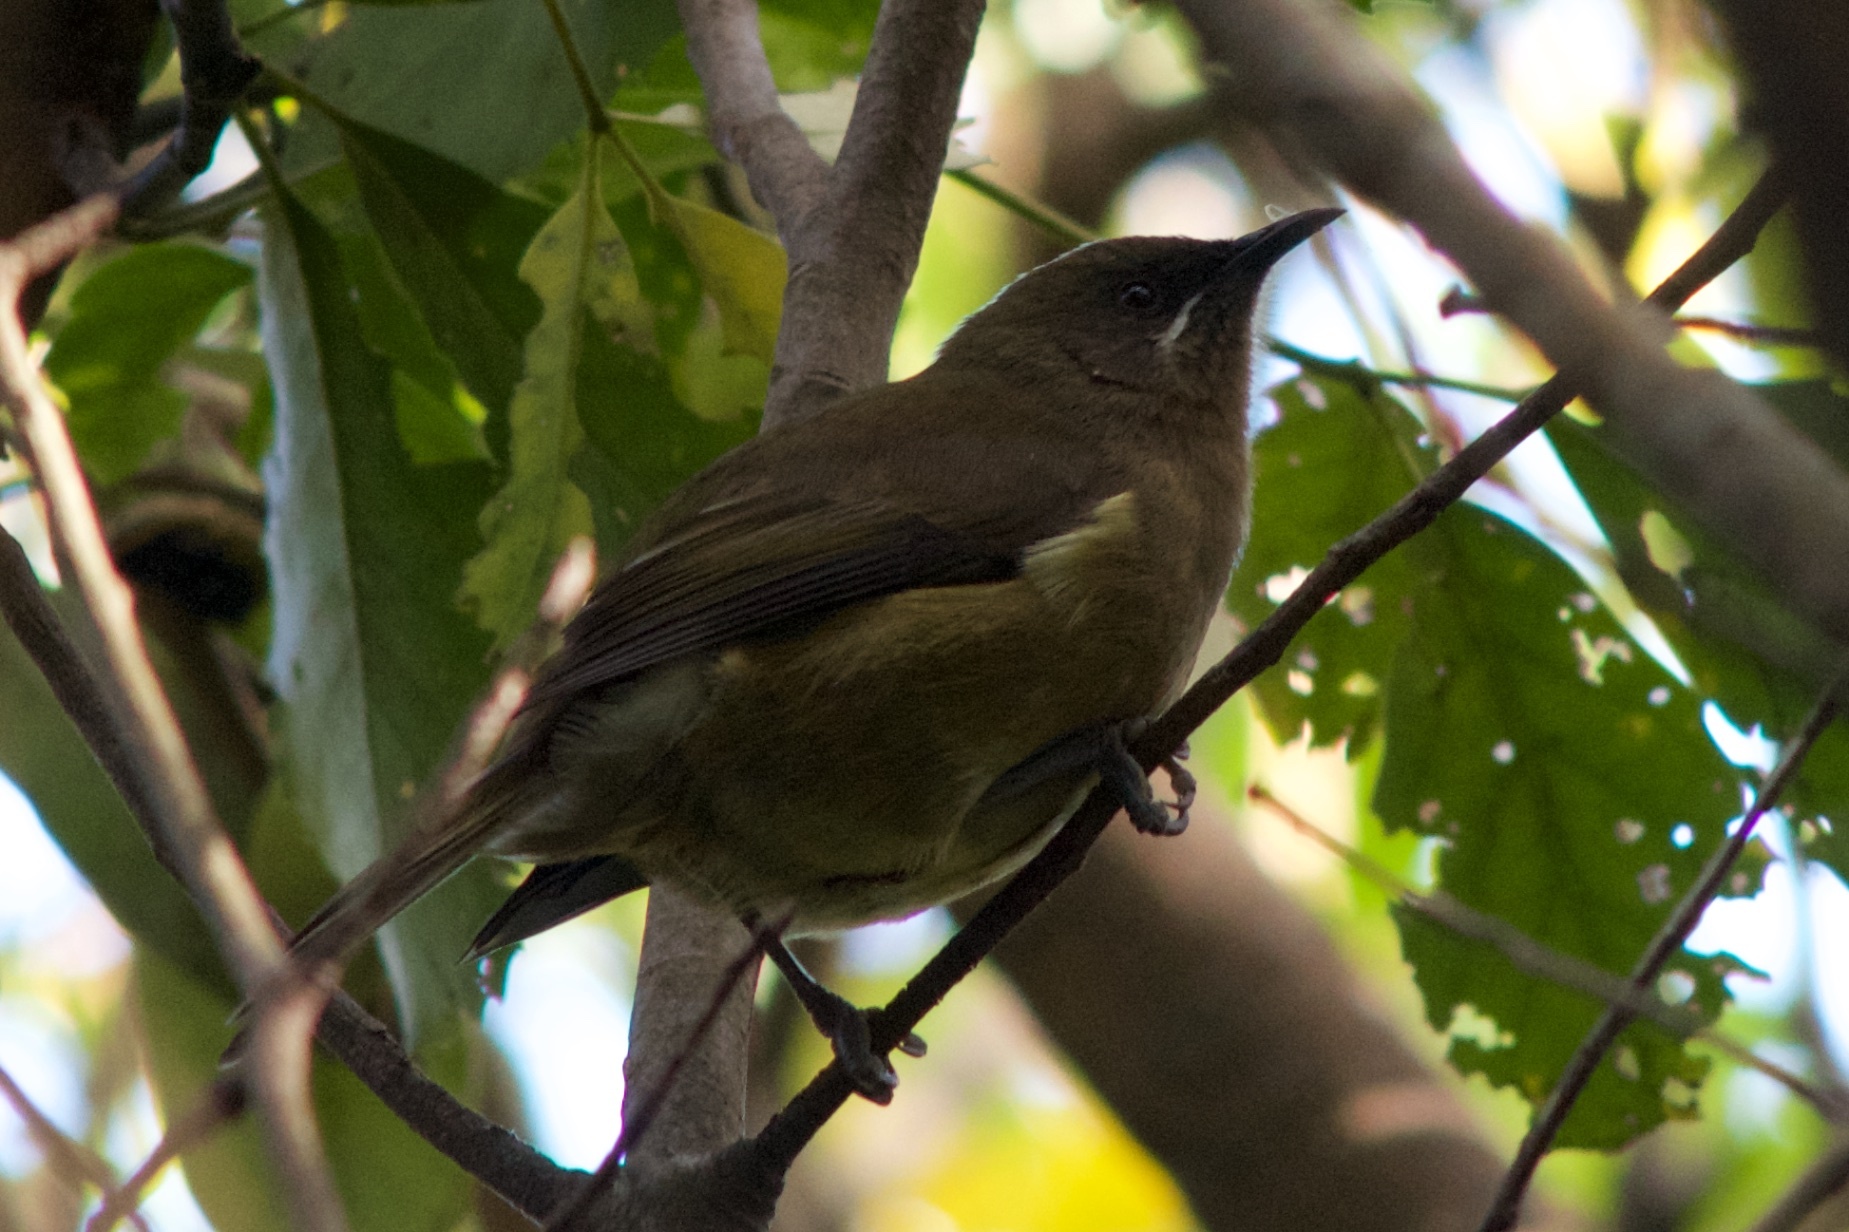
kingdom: Animalia
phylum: Chordata
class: Aves
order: Passeriformes
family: Meliphagidae
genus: Anthornis
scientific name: Anthornis melanura
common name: New zealand bellbird
